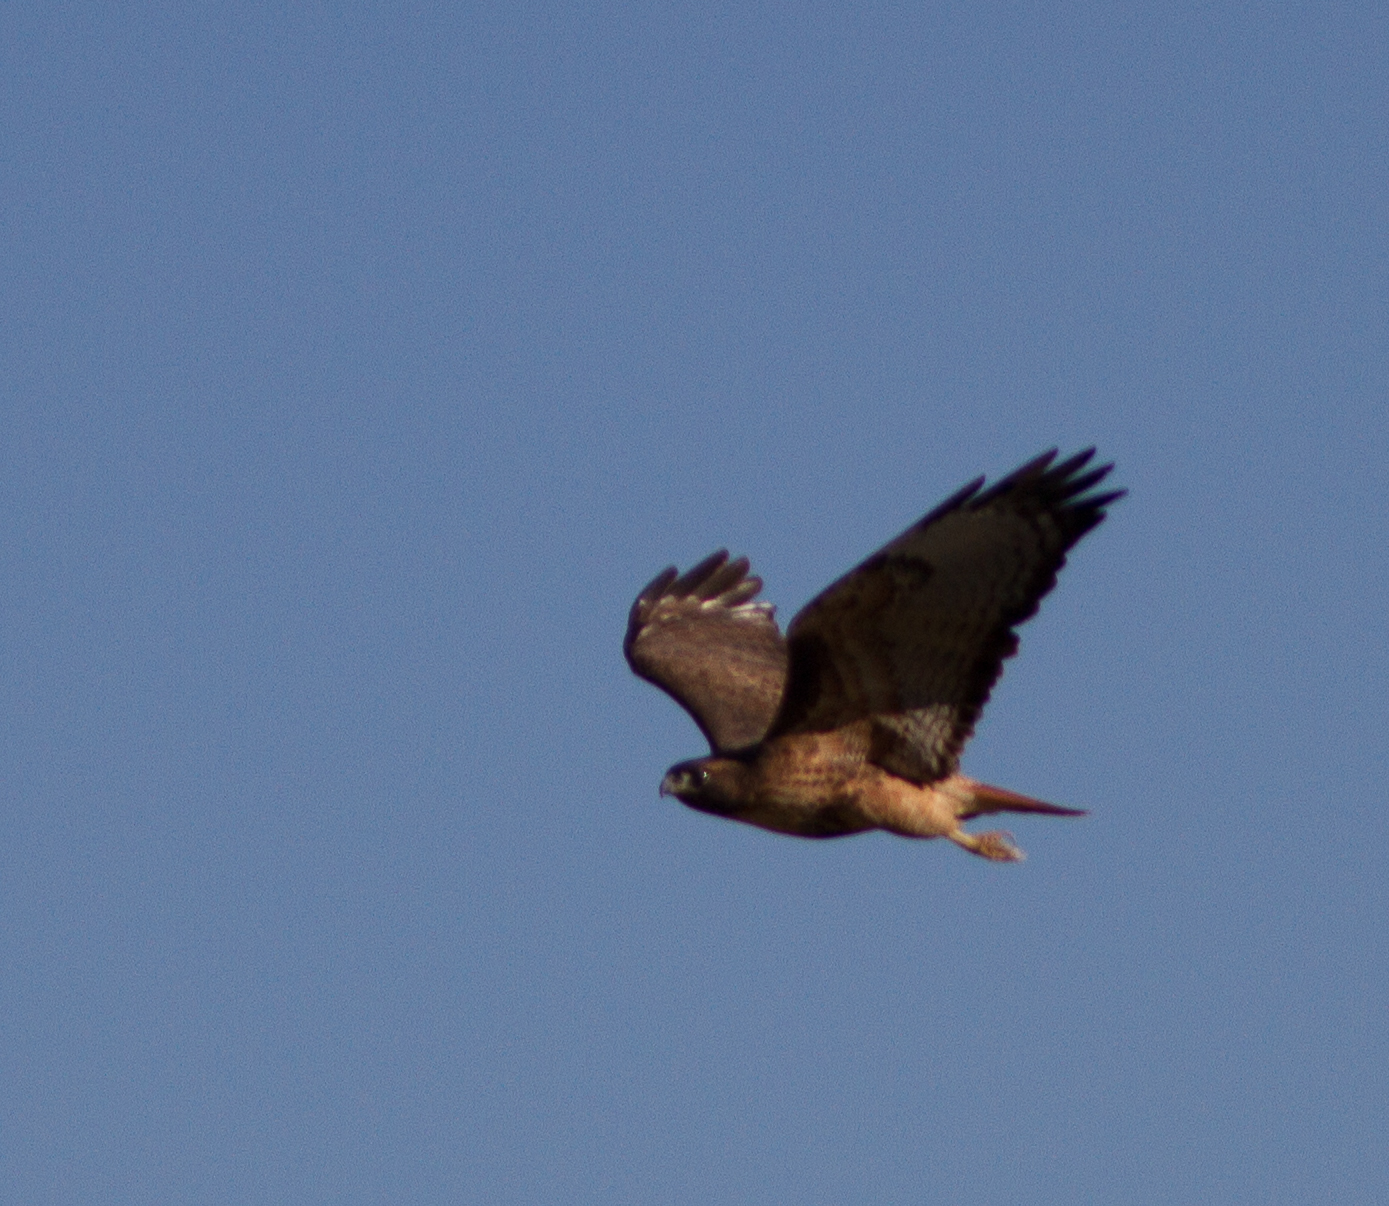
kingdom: Animalia
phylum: Chordata
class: Aves
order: Accipitriformes
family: Accipitridae
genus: Buteo
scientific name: Buteo jamaicensis
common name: Red-tailed hawk
